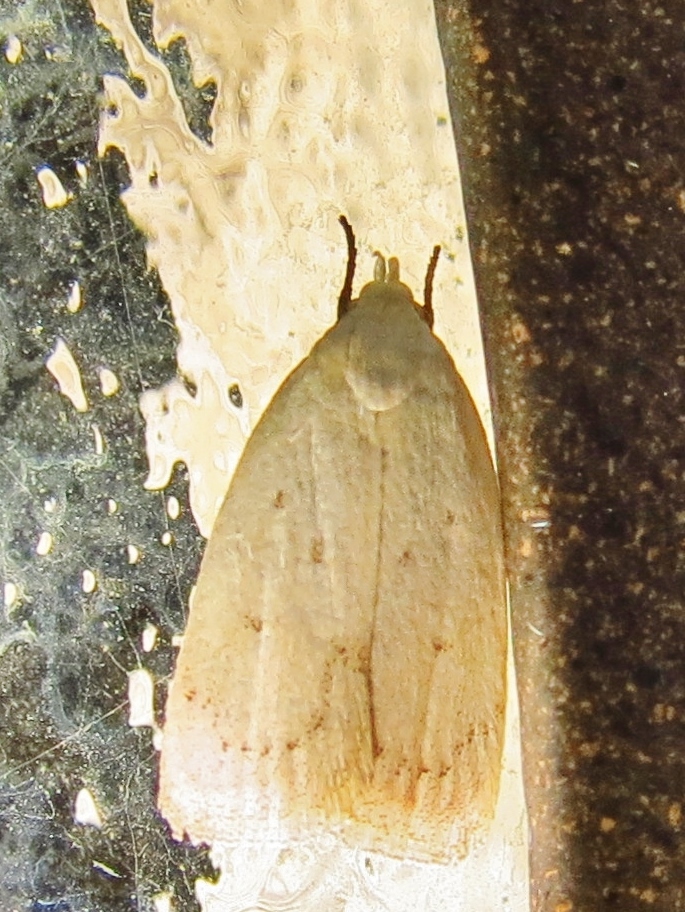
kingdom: Animalia
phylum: Arthropoda
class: Insecta
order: Lepidoptera
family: Oecophoridae
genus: Inga
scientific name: Inga cretacea
